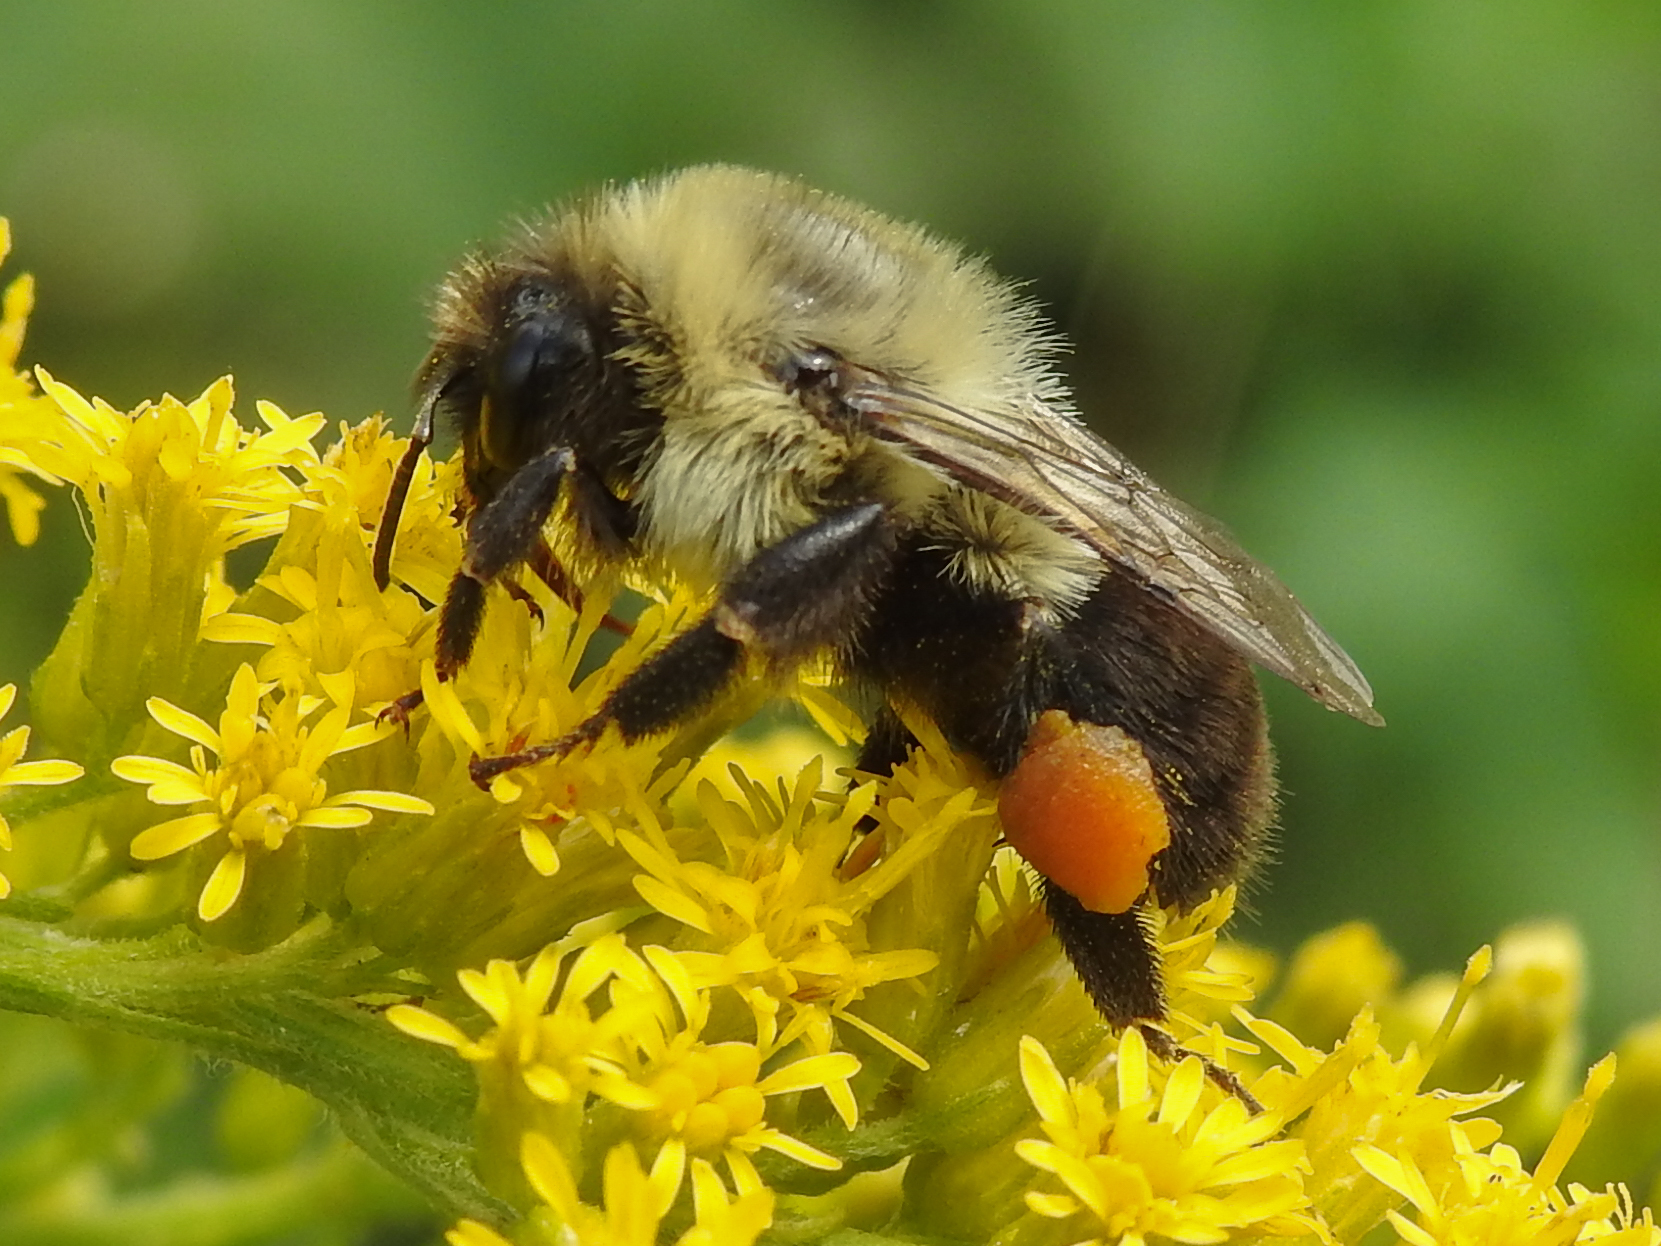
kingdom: Animalia
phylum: Arthropoda
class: Insecta
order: Hymenoptera
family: Apidae
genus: Bombus
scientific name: Bombus impatiens
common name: Common eastern bumble bee
